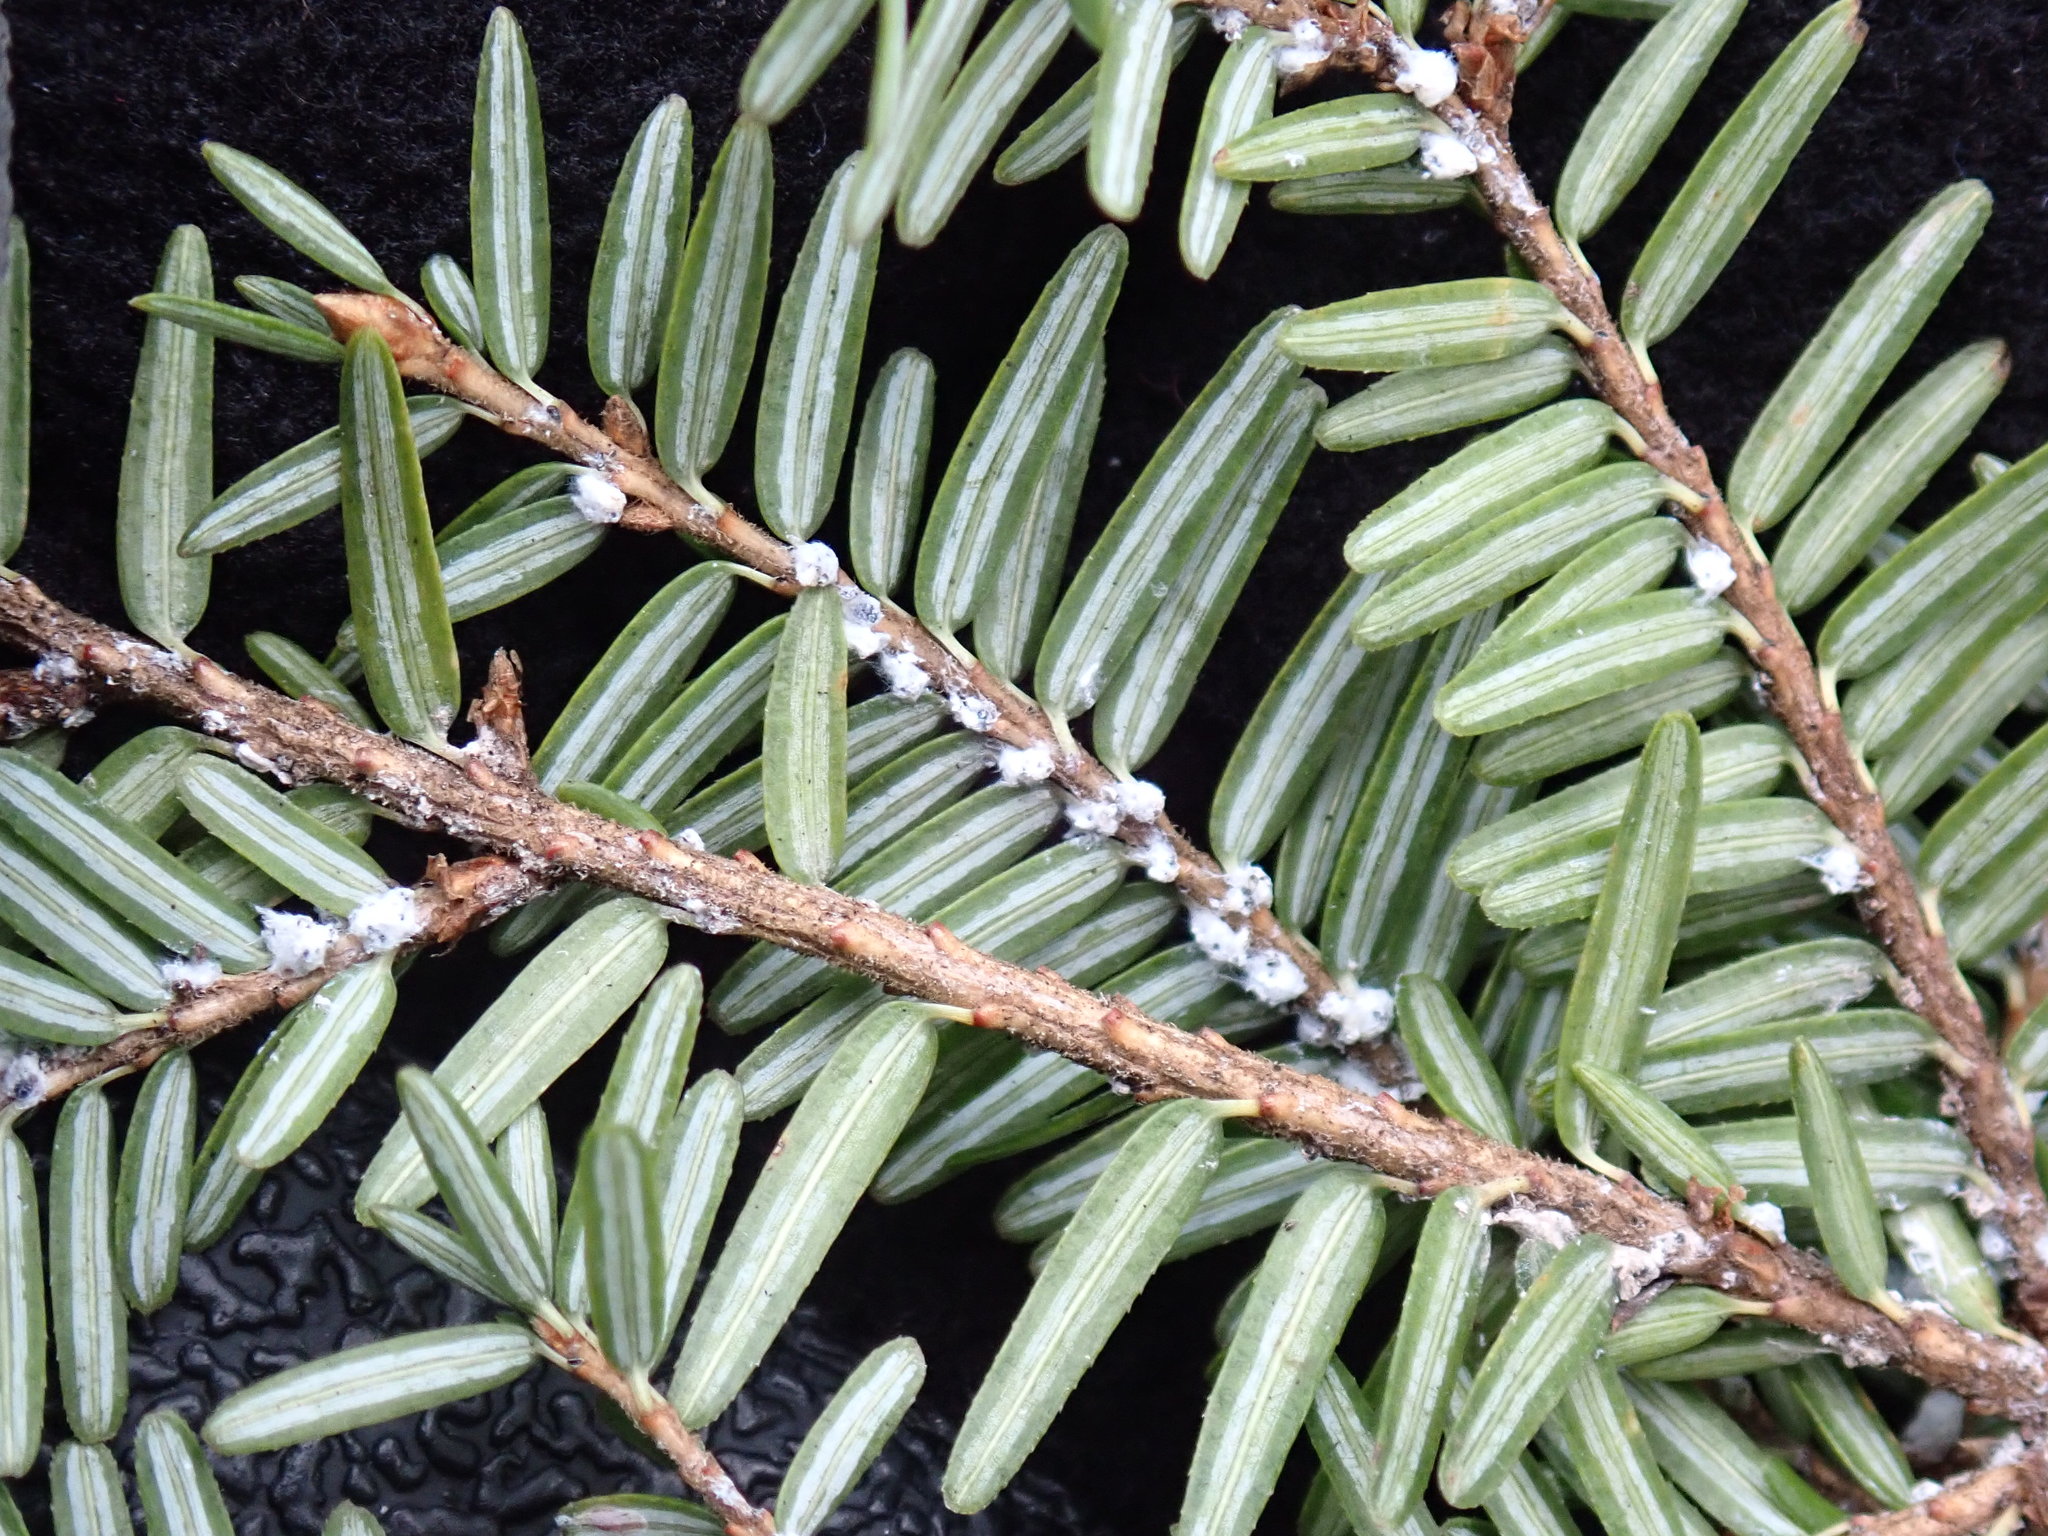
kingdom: Animalia
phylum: Arthropoda
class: Insecta
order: Hemiptera
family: Adelgidae
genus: Adelges
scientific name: Adelges tsugae
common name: Hemlock woolly adelgid
